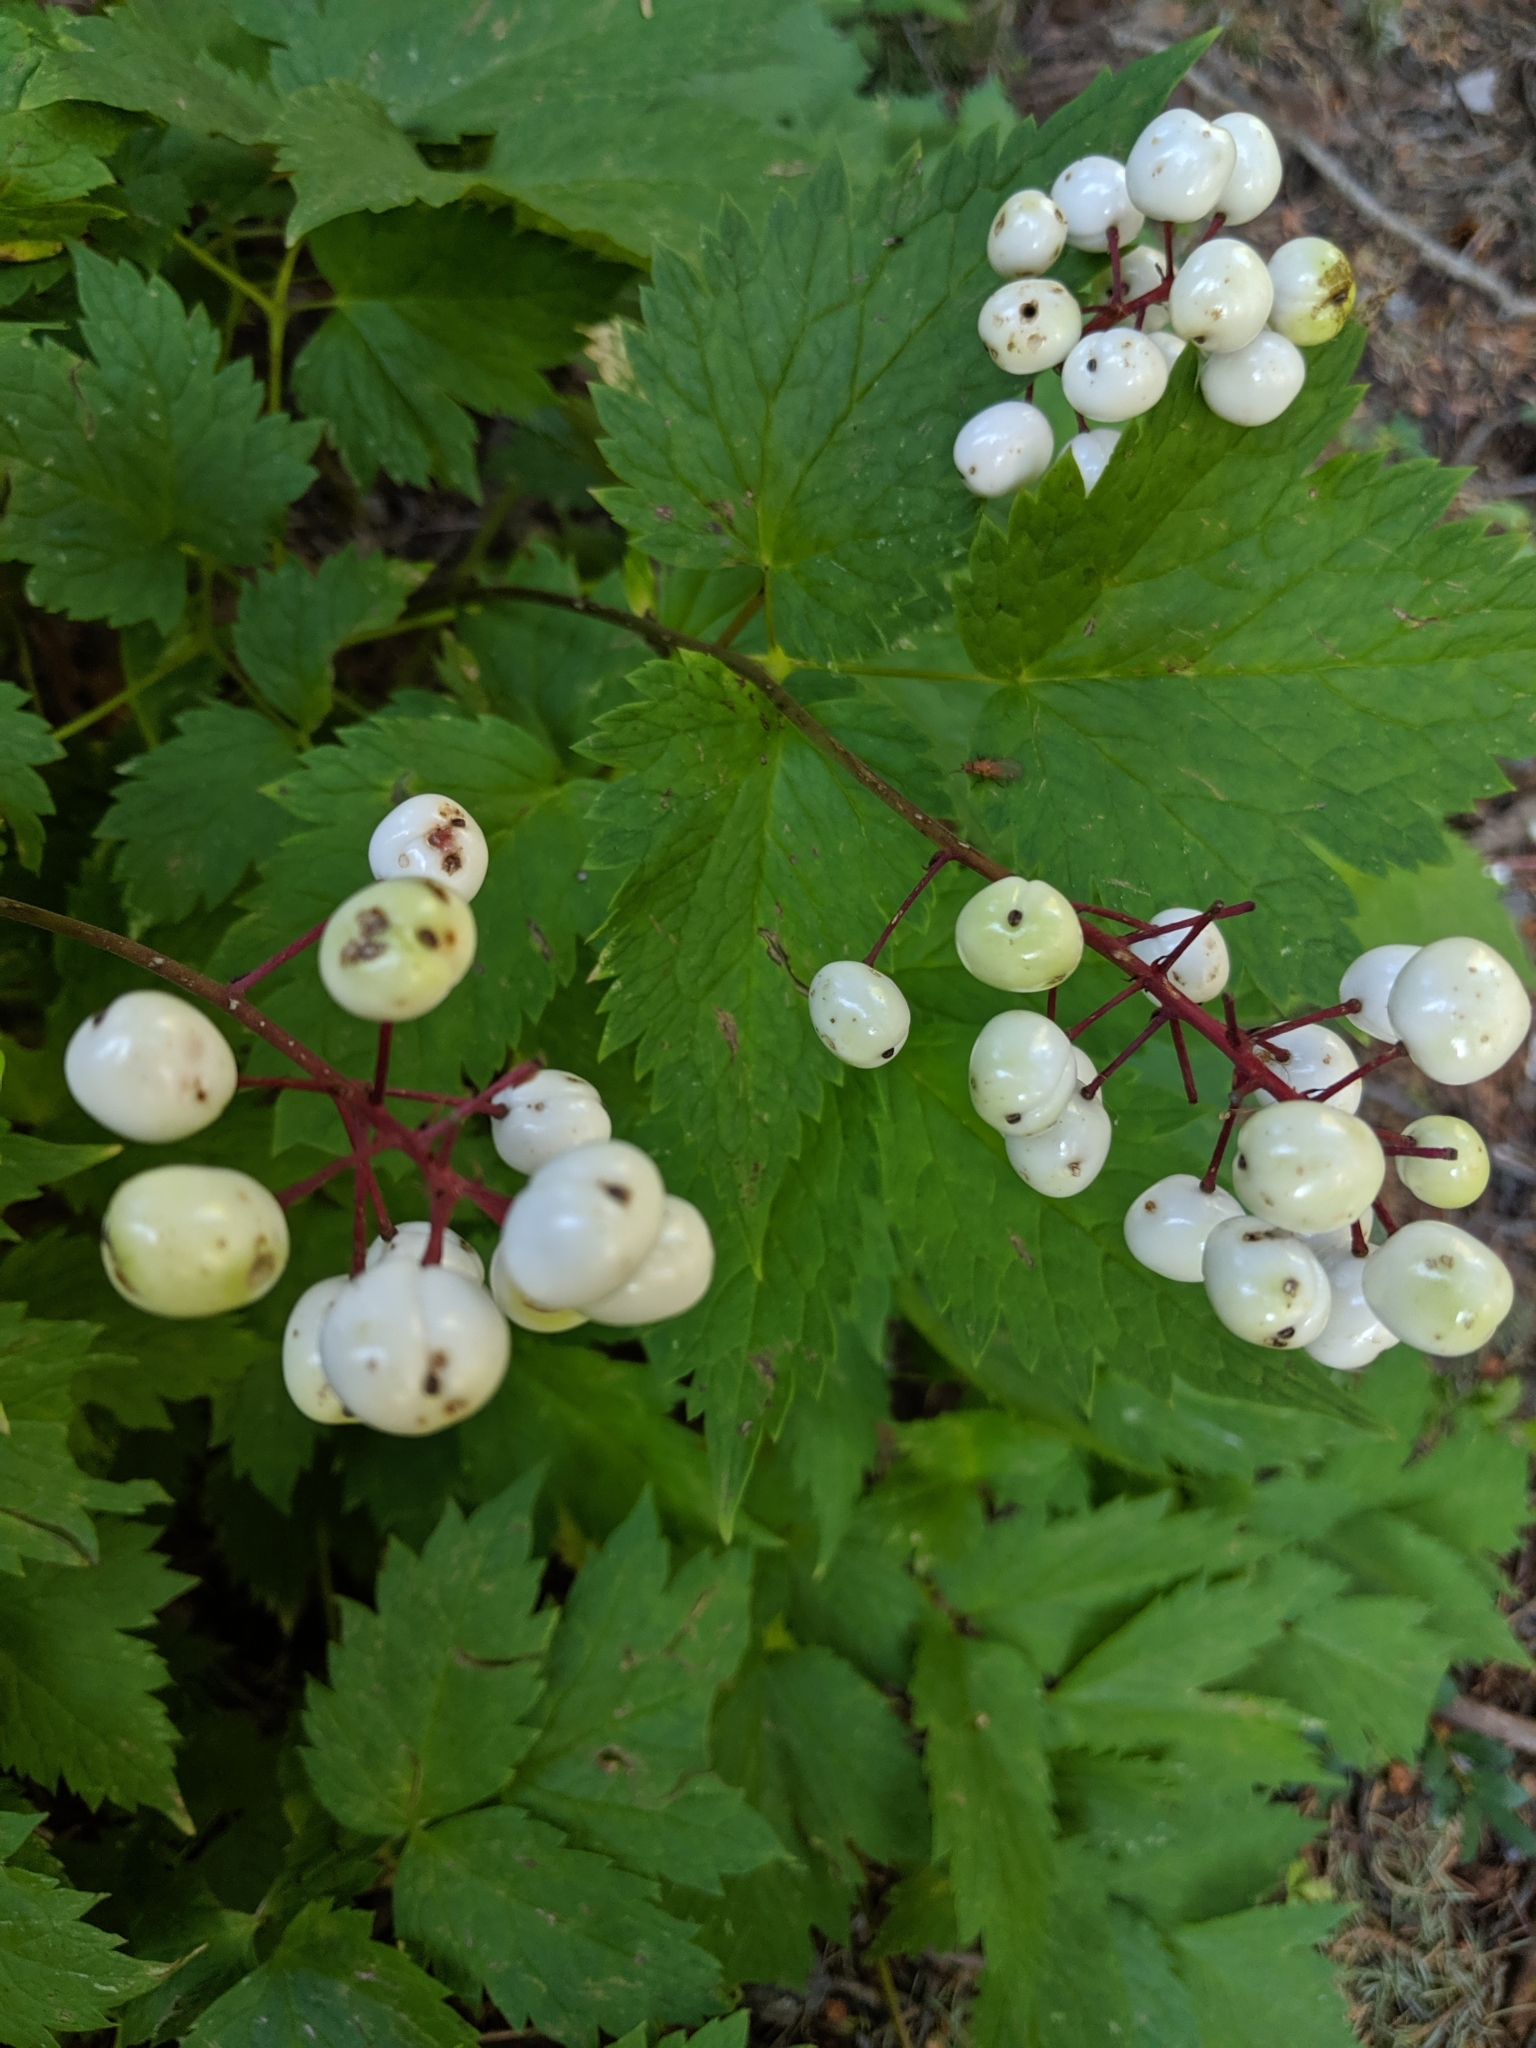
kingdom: Plantae
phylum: Tracheophyta
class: Magnoliopsida
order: Ranunculales
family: Ranunculaceae
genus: Actaea
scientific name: Actaea rubra
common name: Red baneberry
